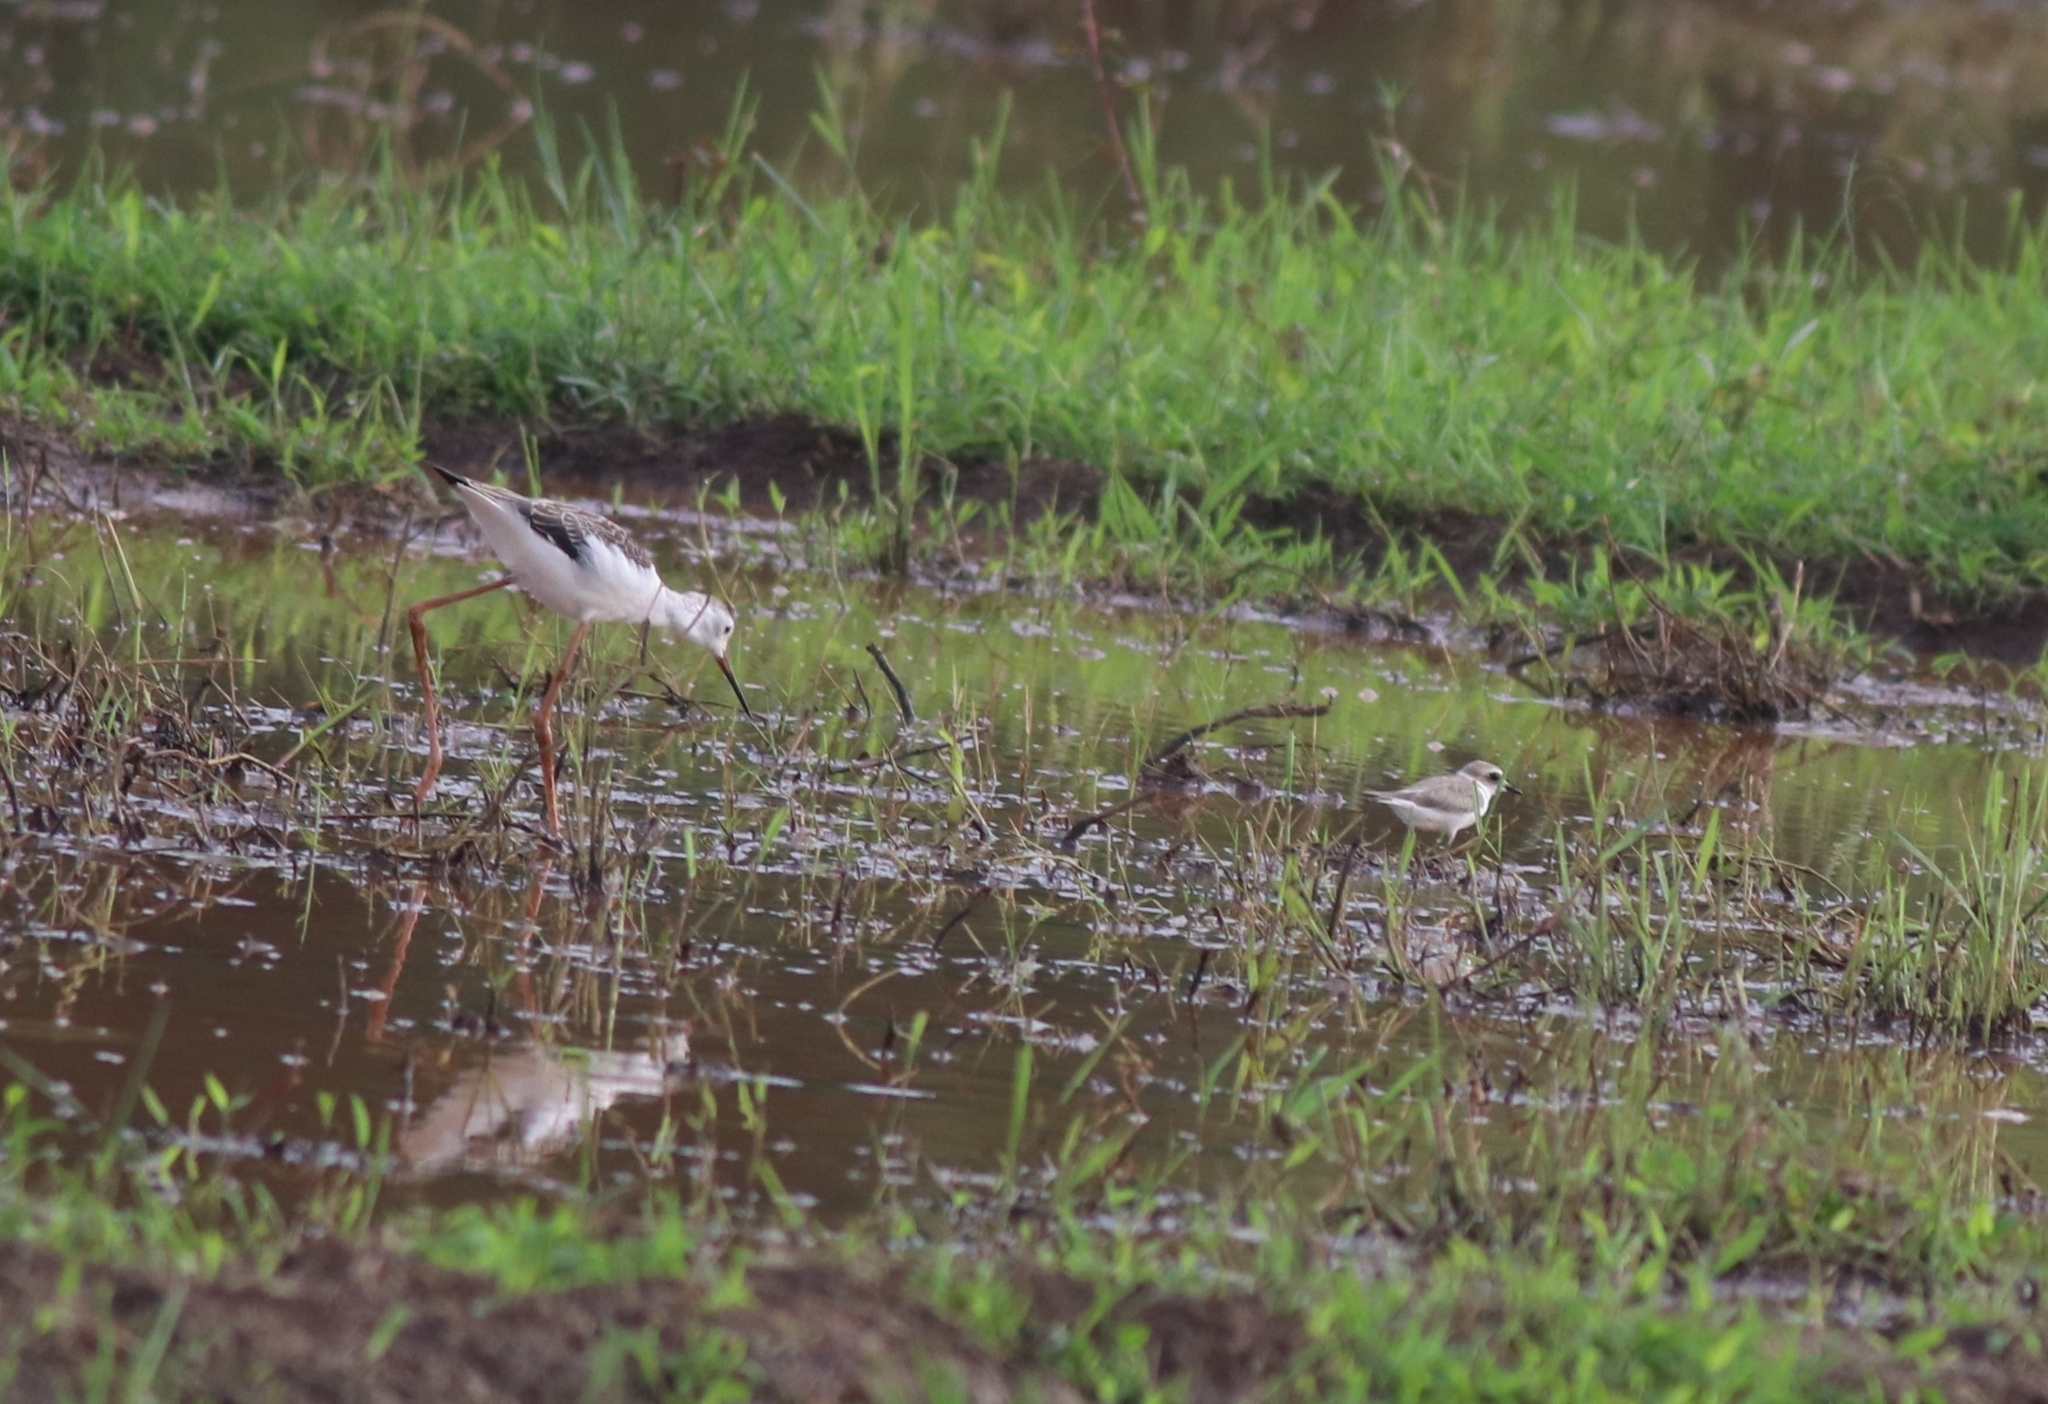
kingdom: Animalia
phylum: Chordata
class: Aves
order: Charadriiformes
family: Recurvirostridae
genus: Himantopus
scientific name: Himantopus himantopus
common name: Black-winged stilt
